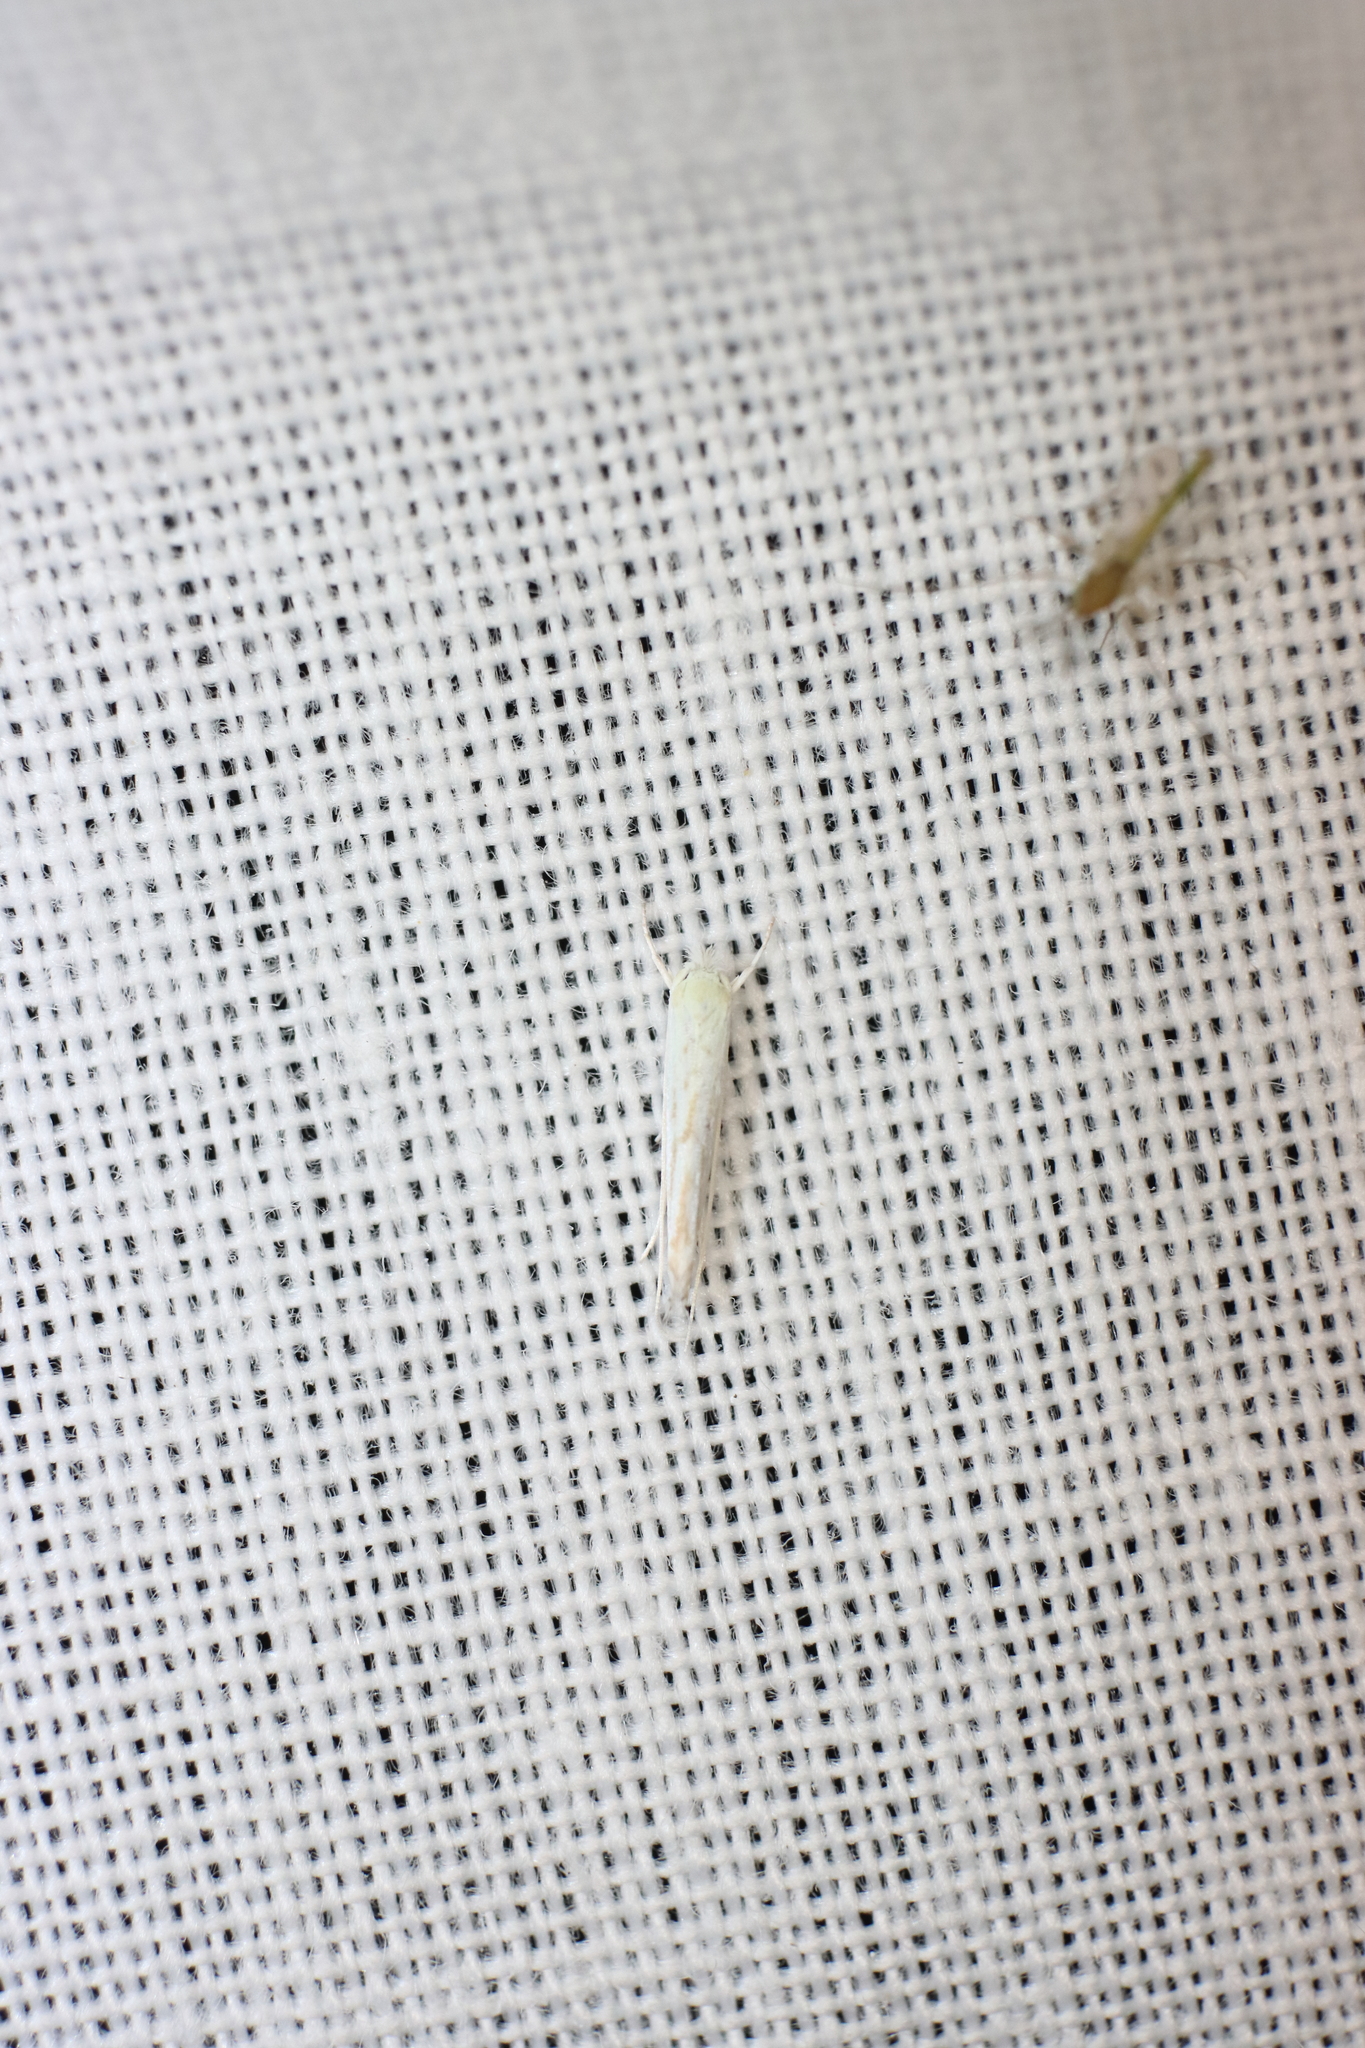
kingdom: Animalia
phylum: Arthropoda
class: Insecta
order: Lepidoptera
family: Lyonetiidae
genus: Stegommata
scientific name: Stegommata sulfuratella
